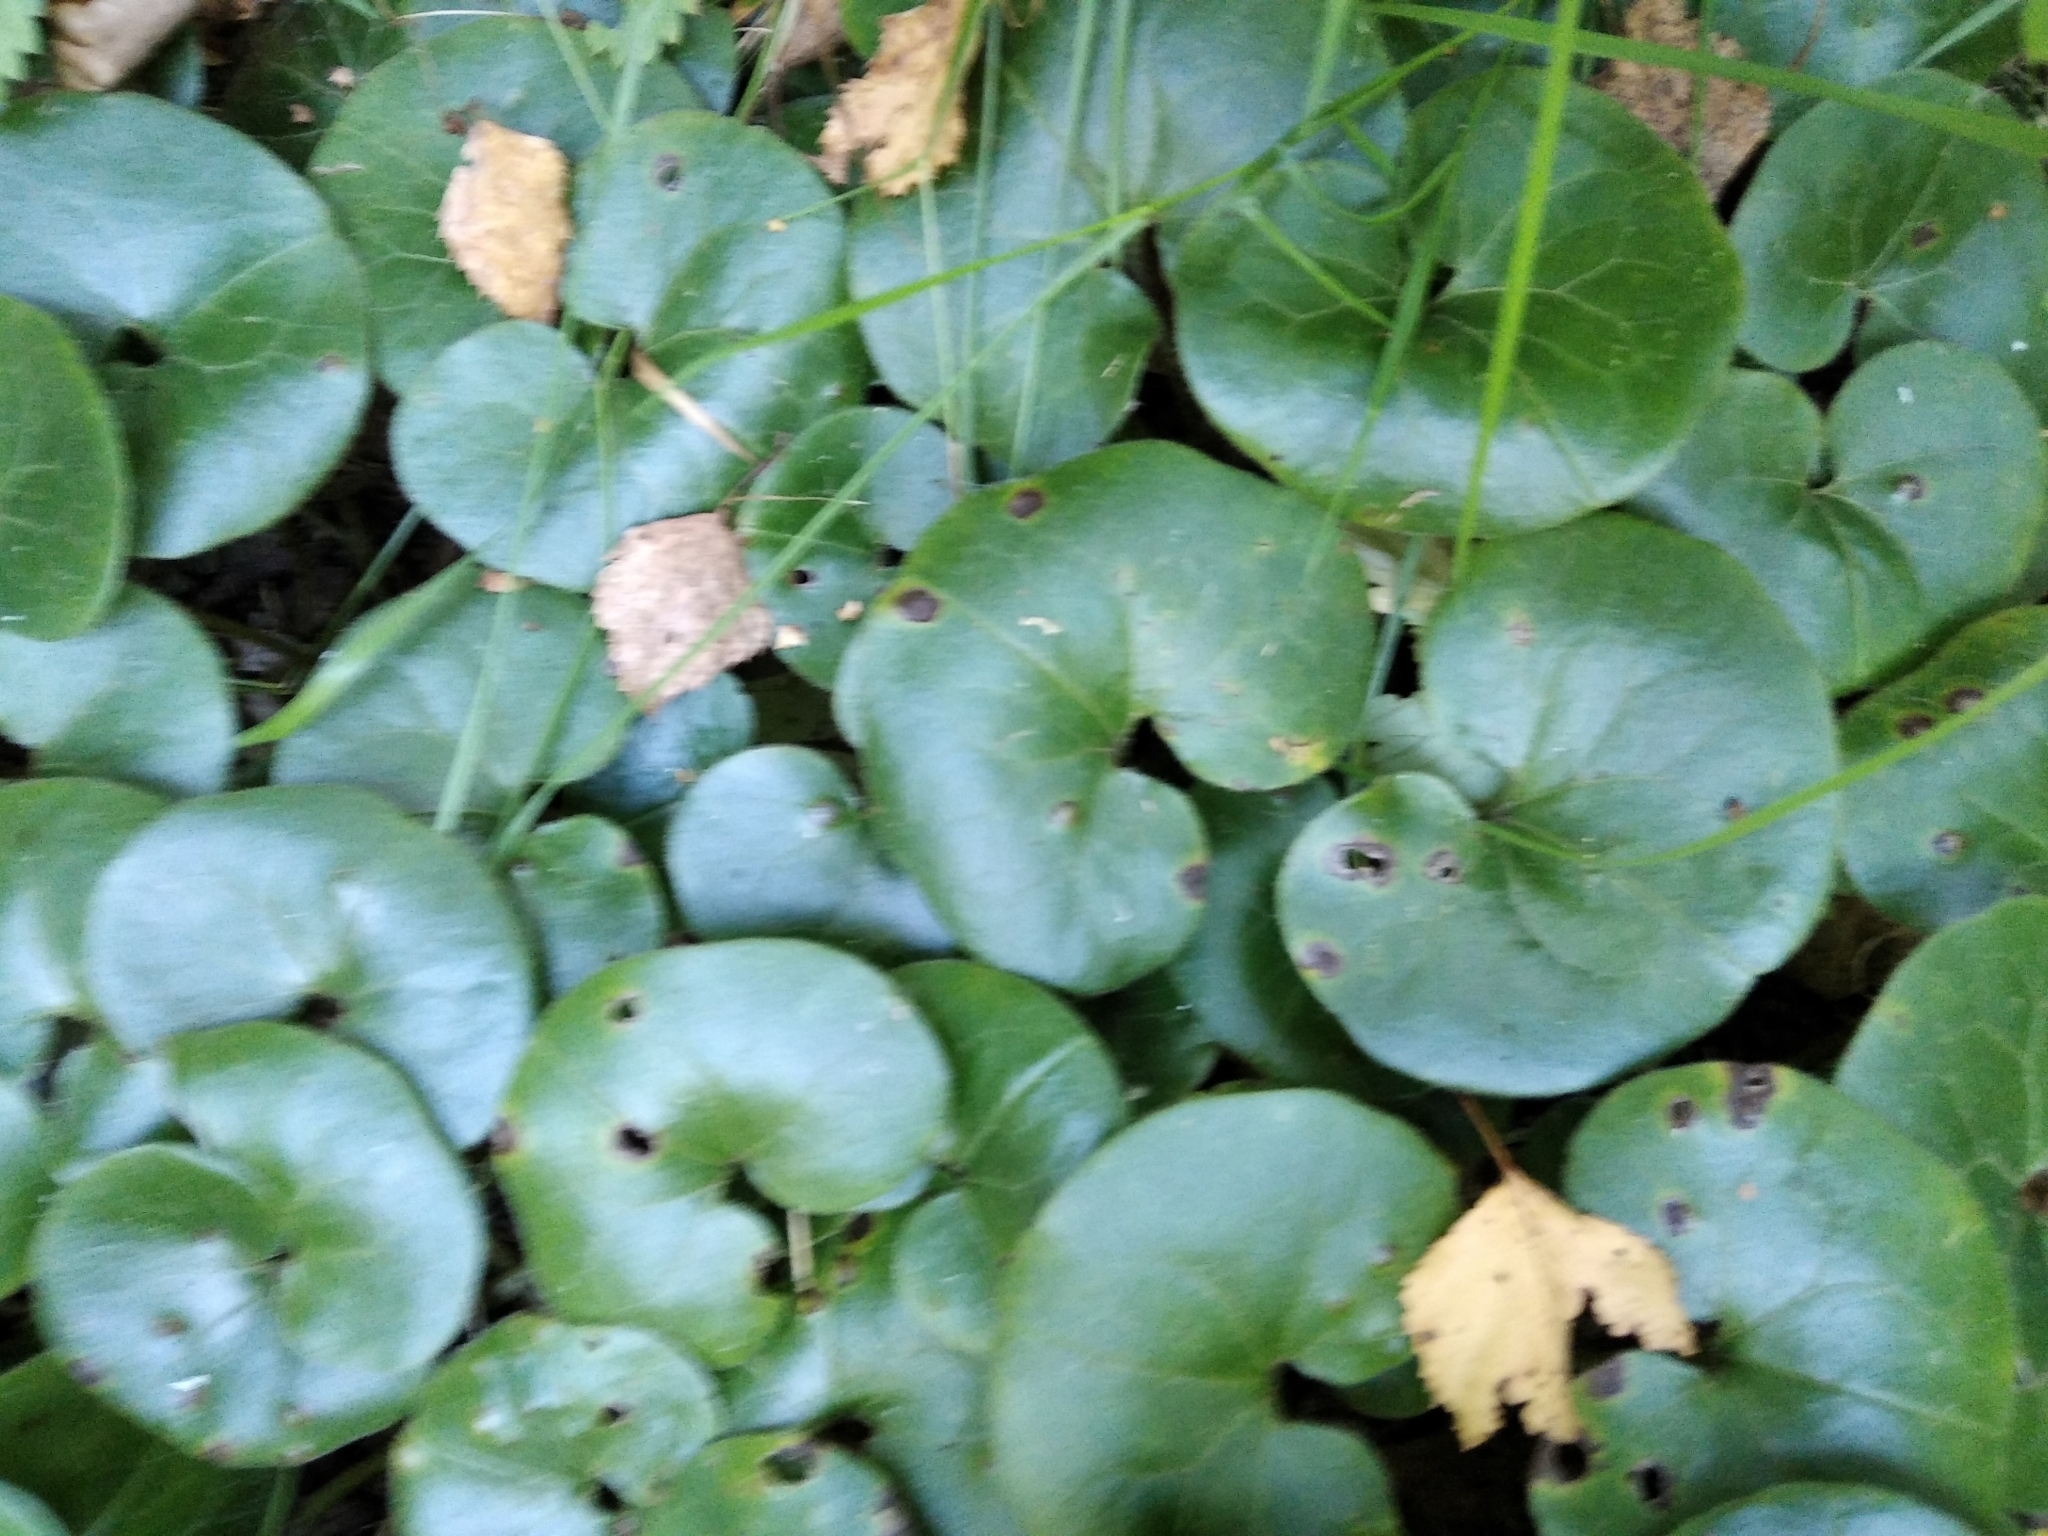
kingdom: Plantae
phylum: Tracheophyta
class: Magnoliopsida
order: Piperales
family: Aristolochiaceae
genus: Asarum
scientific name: Asarum europaeum
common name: Asarabacca
